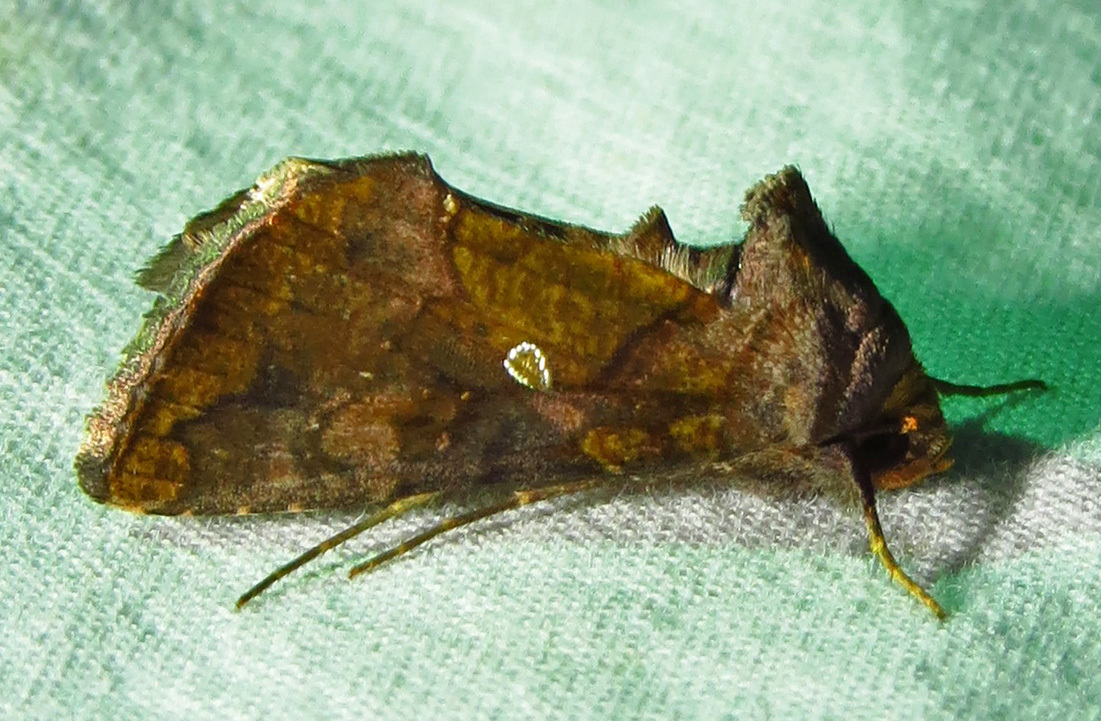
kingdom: Animalia
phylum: Arthropoda
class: Insecta
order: Lepidoptera
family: Noctuidae
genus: Argyrogramma
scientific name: Argyrogramma verruca
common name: Golden looper moth
